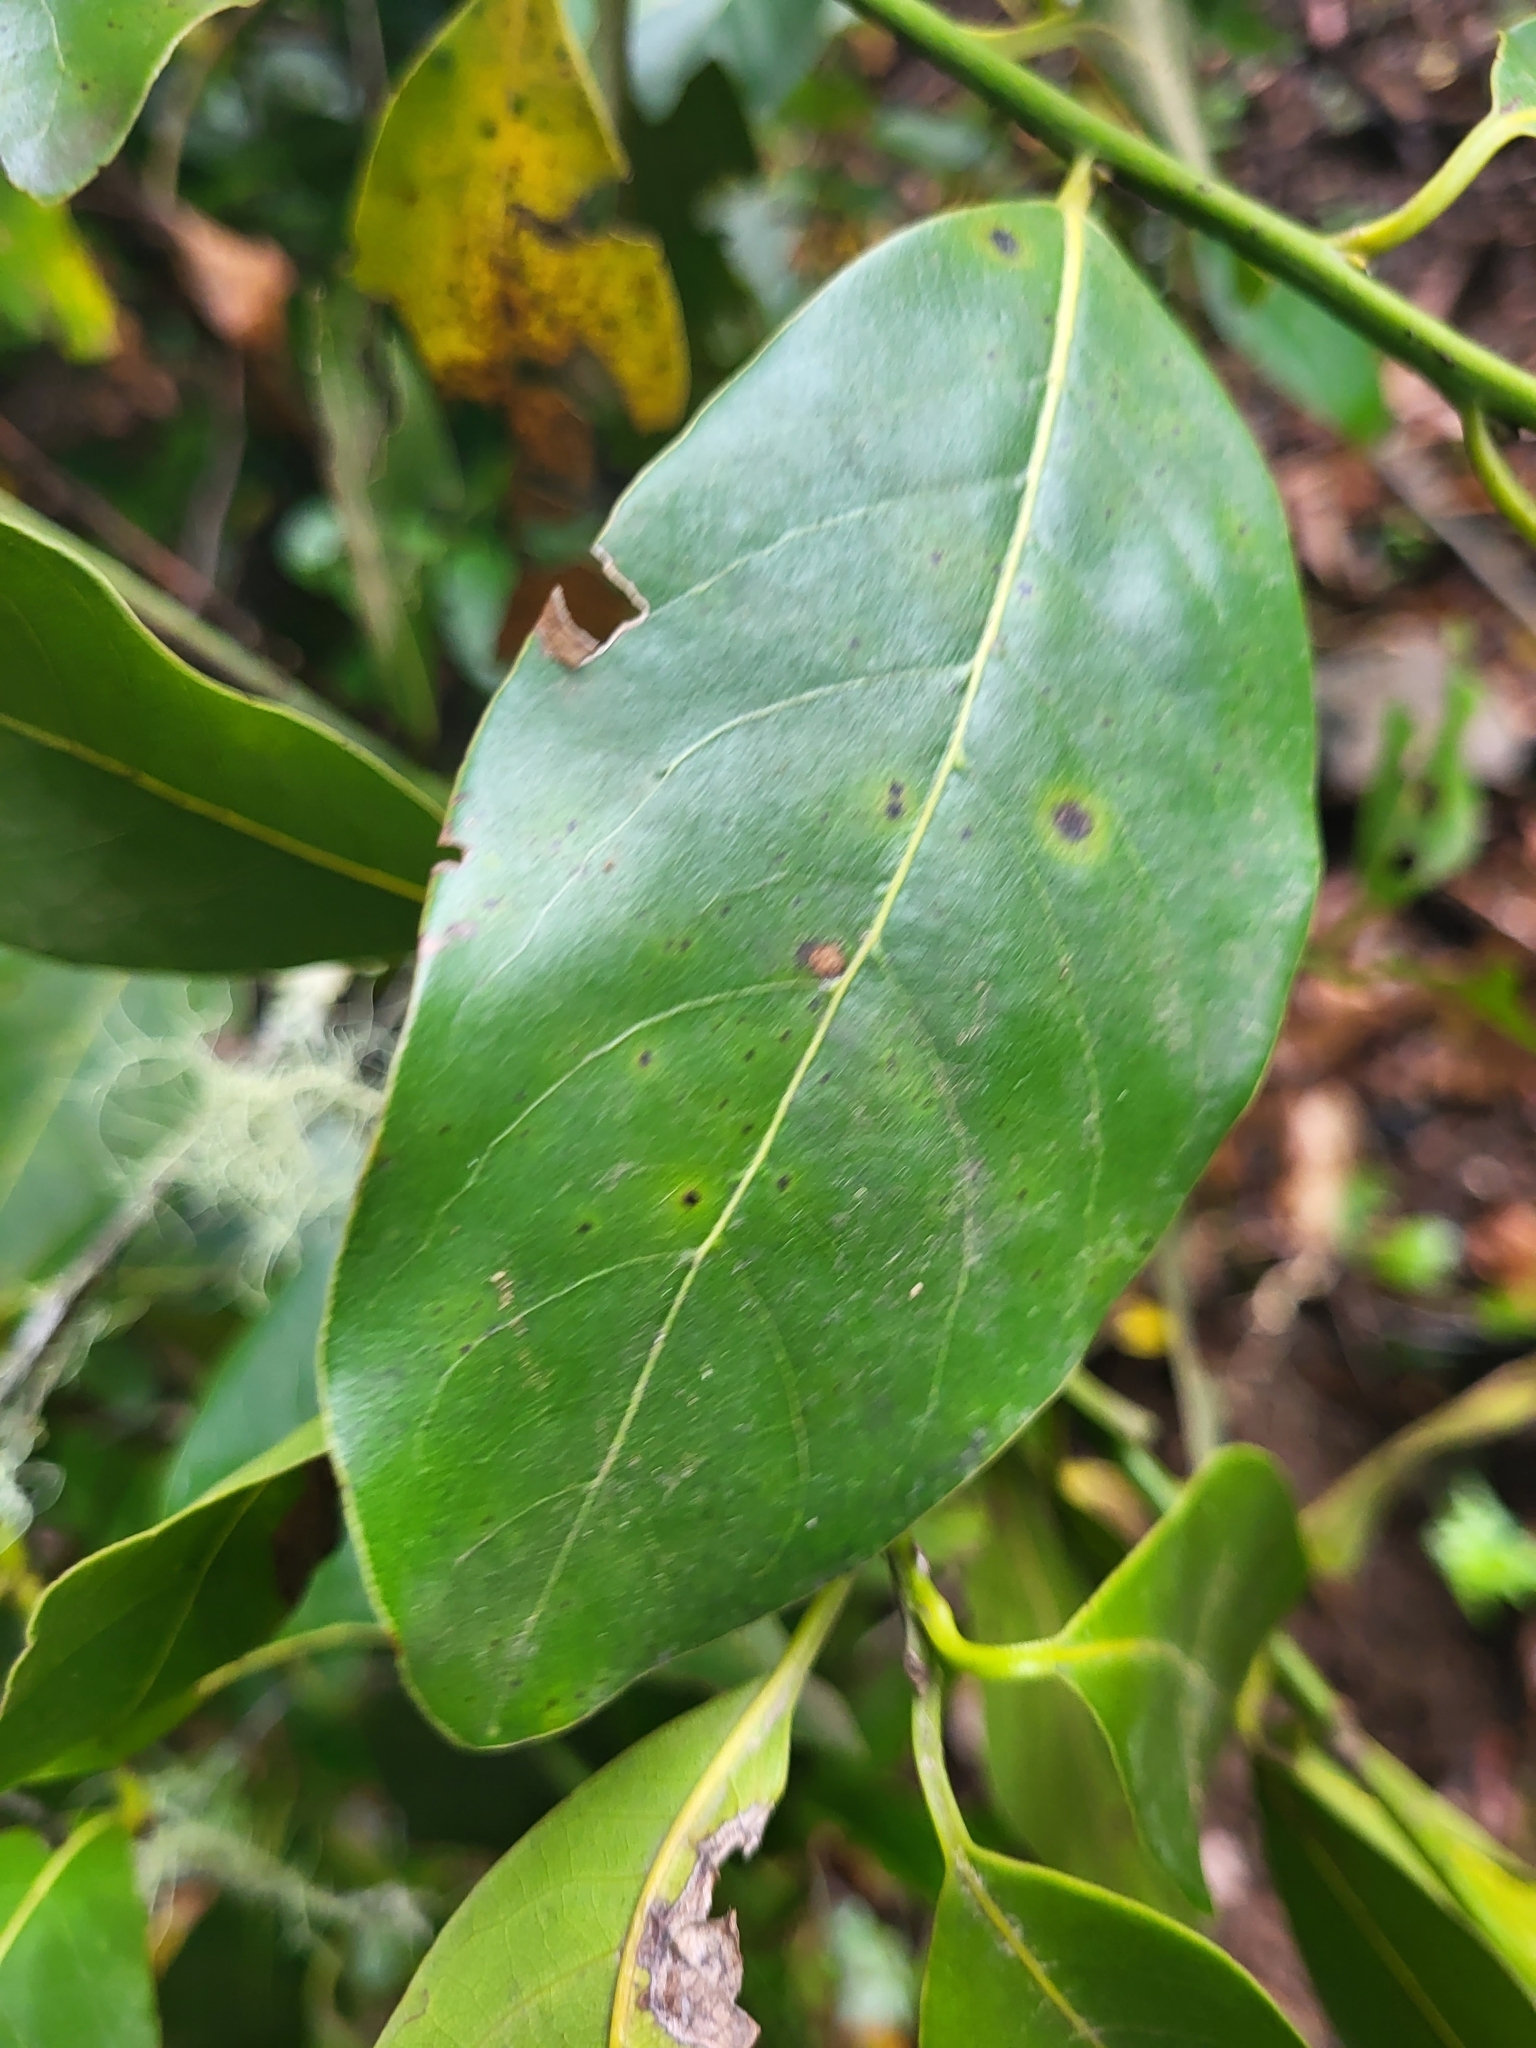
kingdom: Plantae
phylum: Tracheophyta
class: Magnoliopsida
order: Laurales
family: Lauraceae
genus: Laurus
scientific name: Laurus novocanariensis
